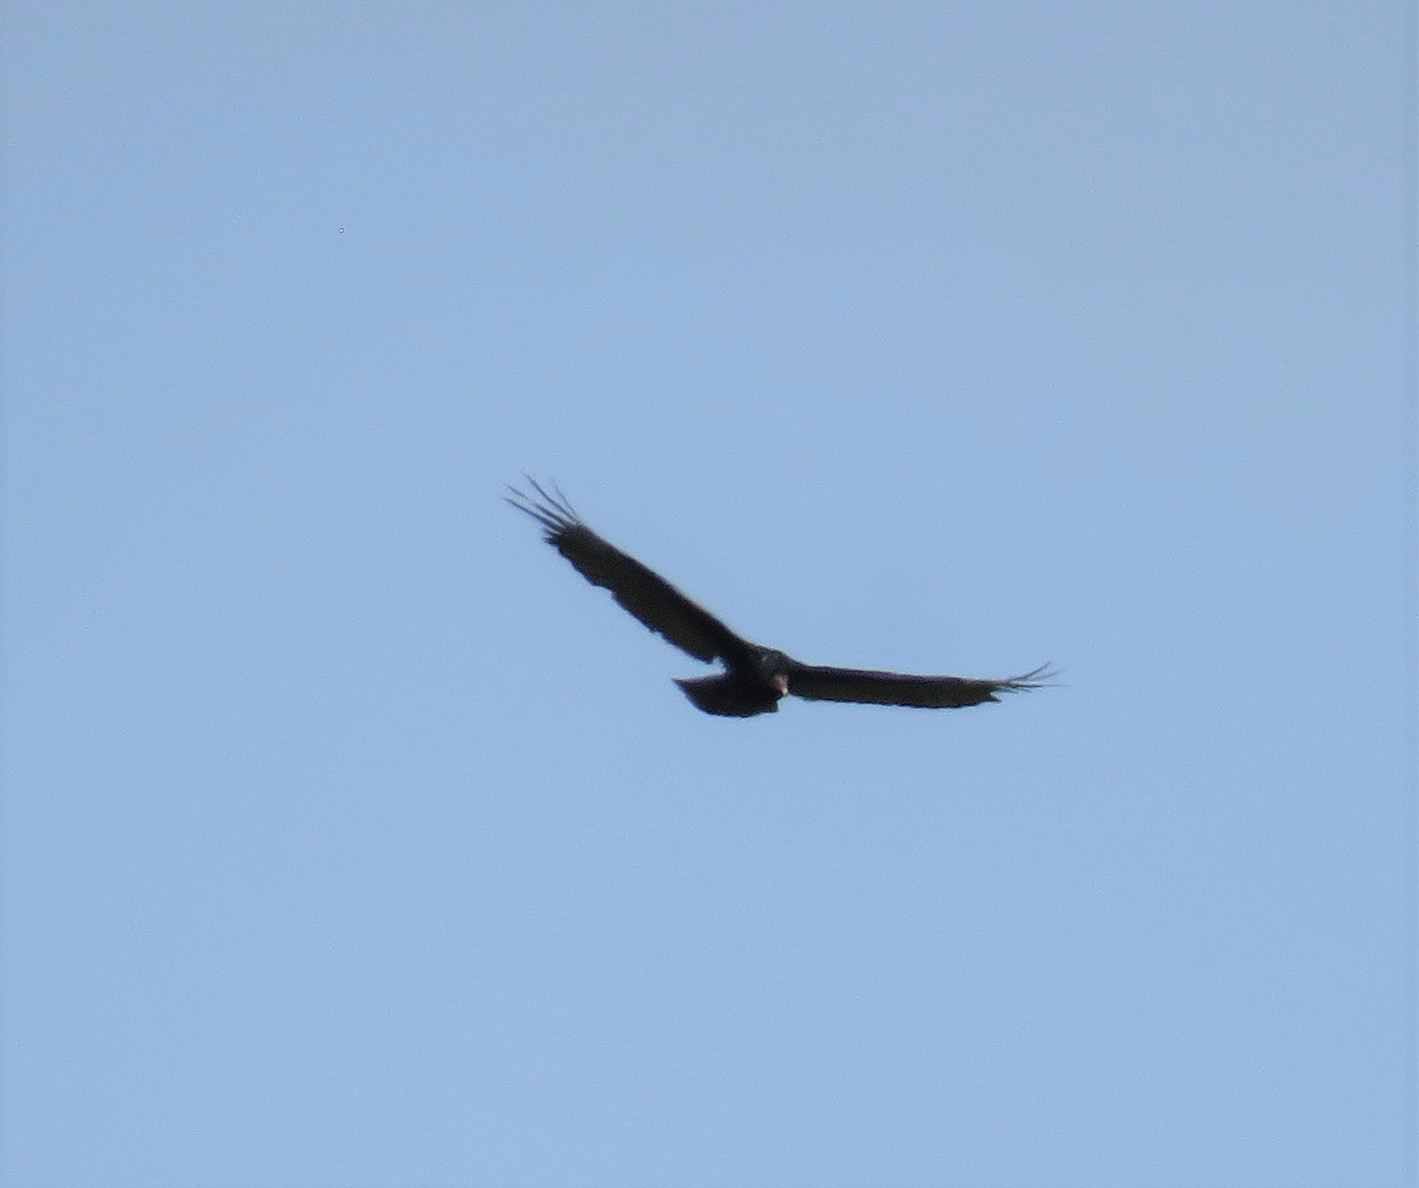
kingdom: Animalia
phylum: Chordata
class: Aves
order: Accipitriformes
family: Cathartidae
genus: Cathartes
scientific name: Cathartes aura
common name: Turkey vulture
